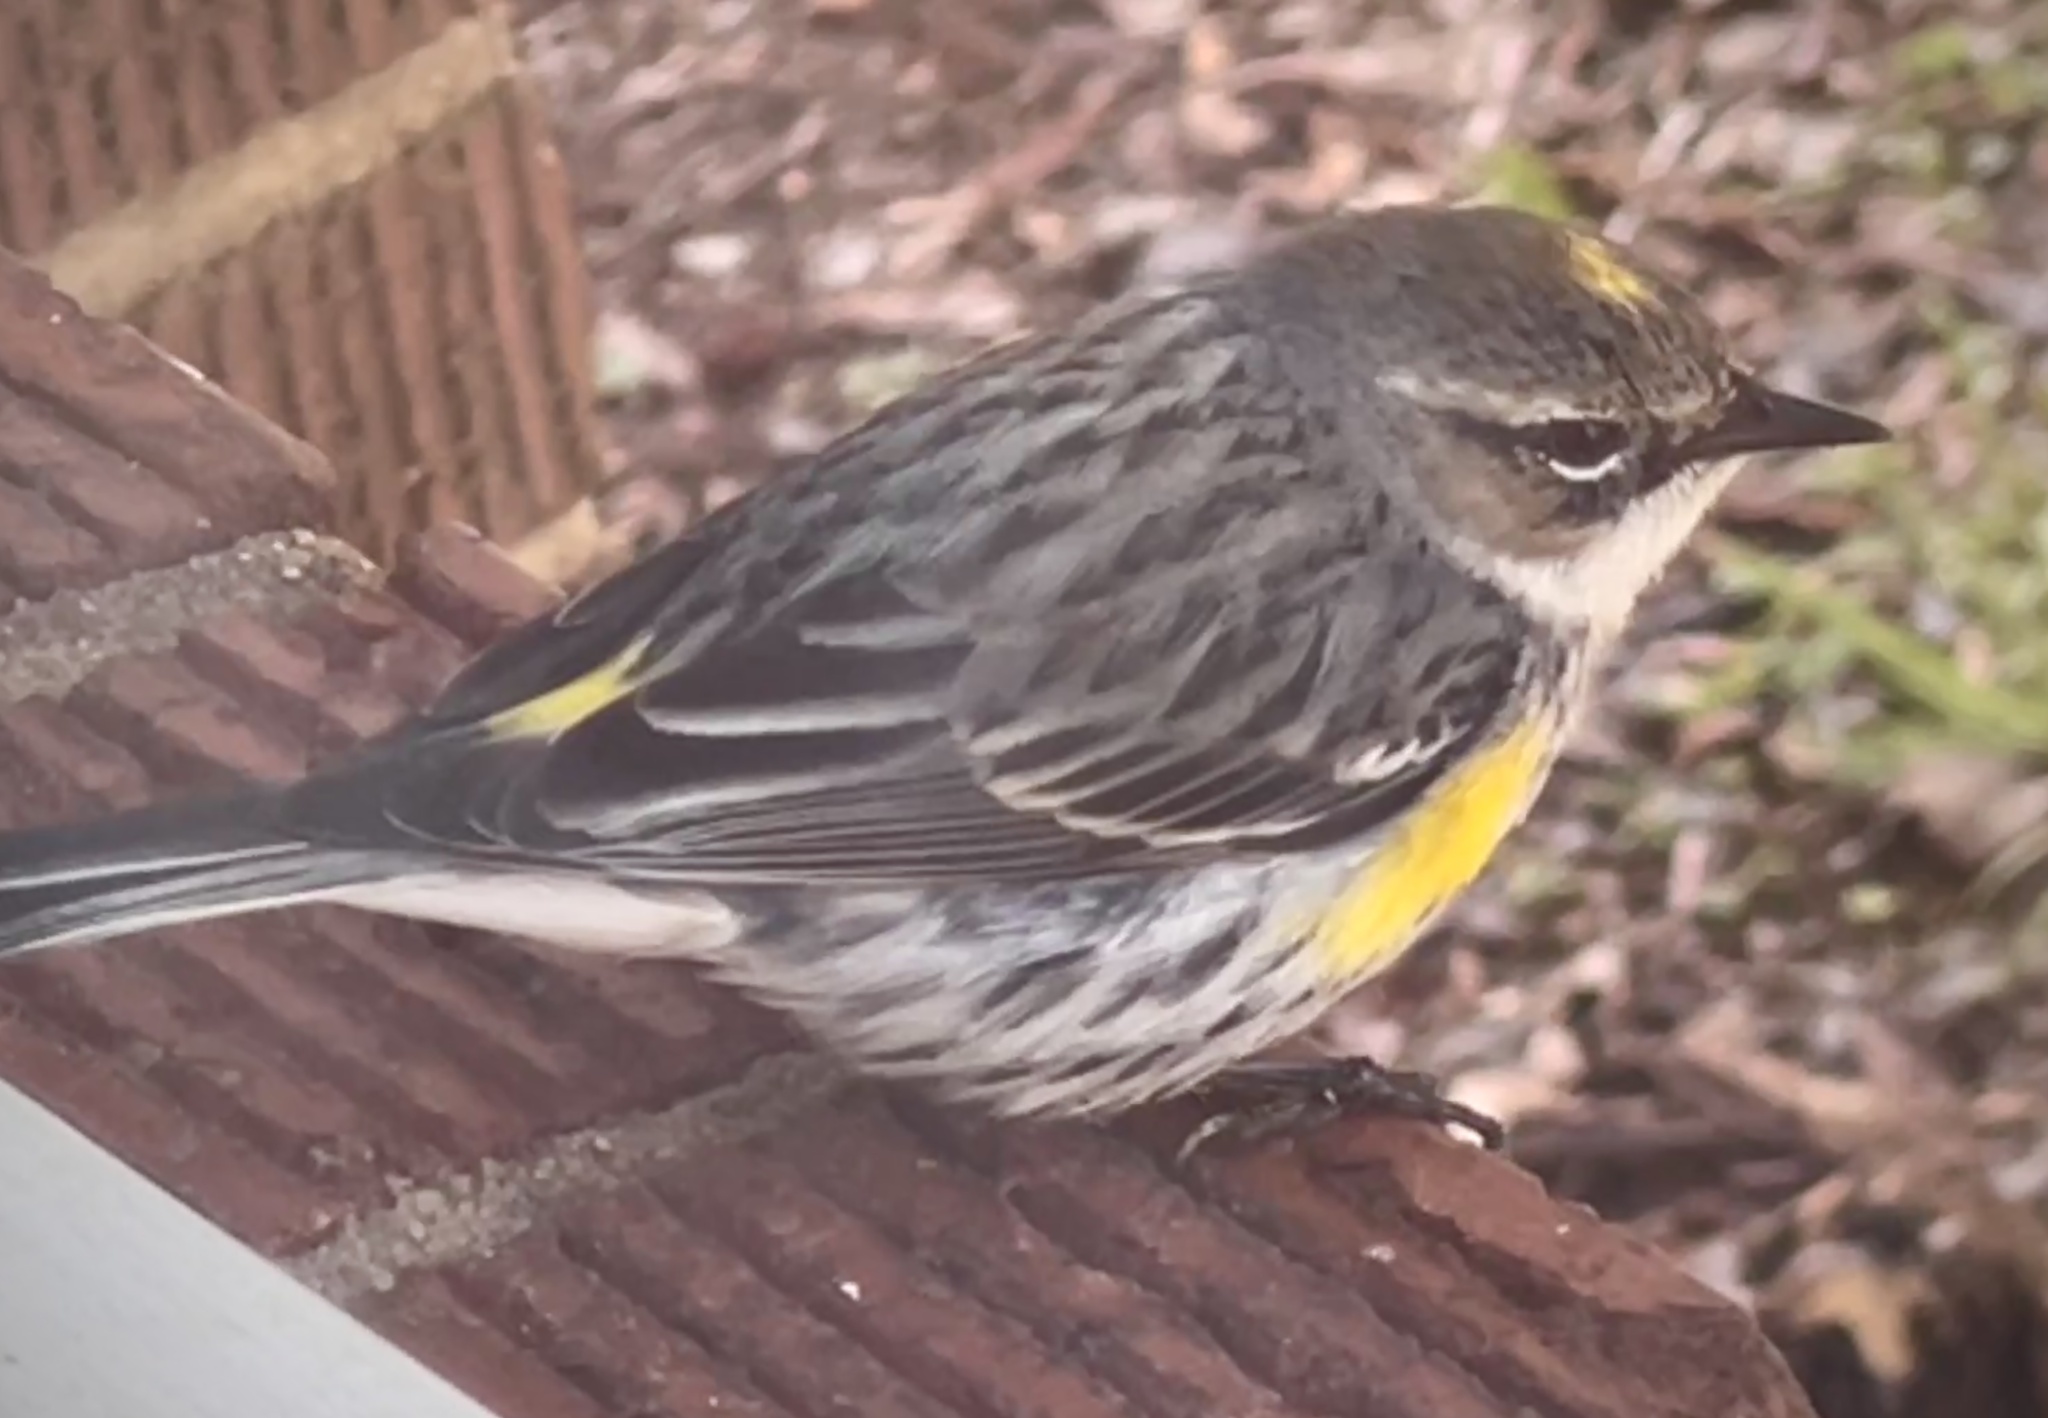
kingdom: Animalia
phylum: Chordata
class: Aves
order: Passeriformes
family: Parulidae
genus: Setophaga
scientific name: Setophaga coronata
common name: Myrtle warbler
